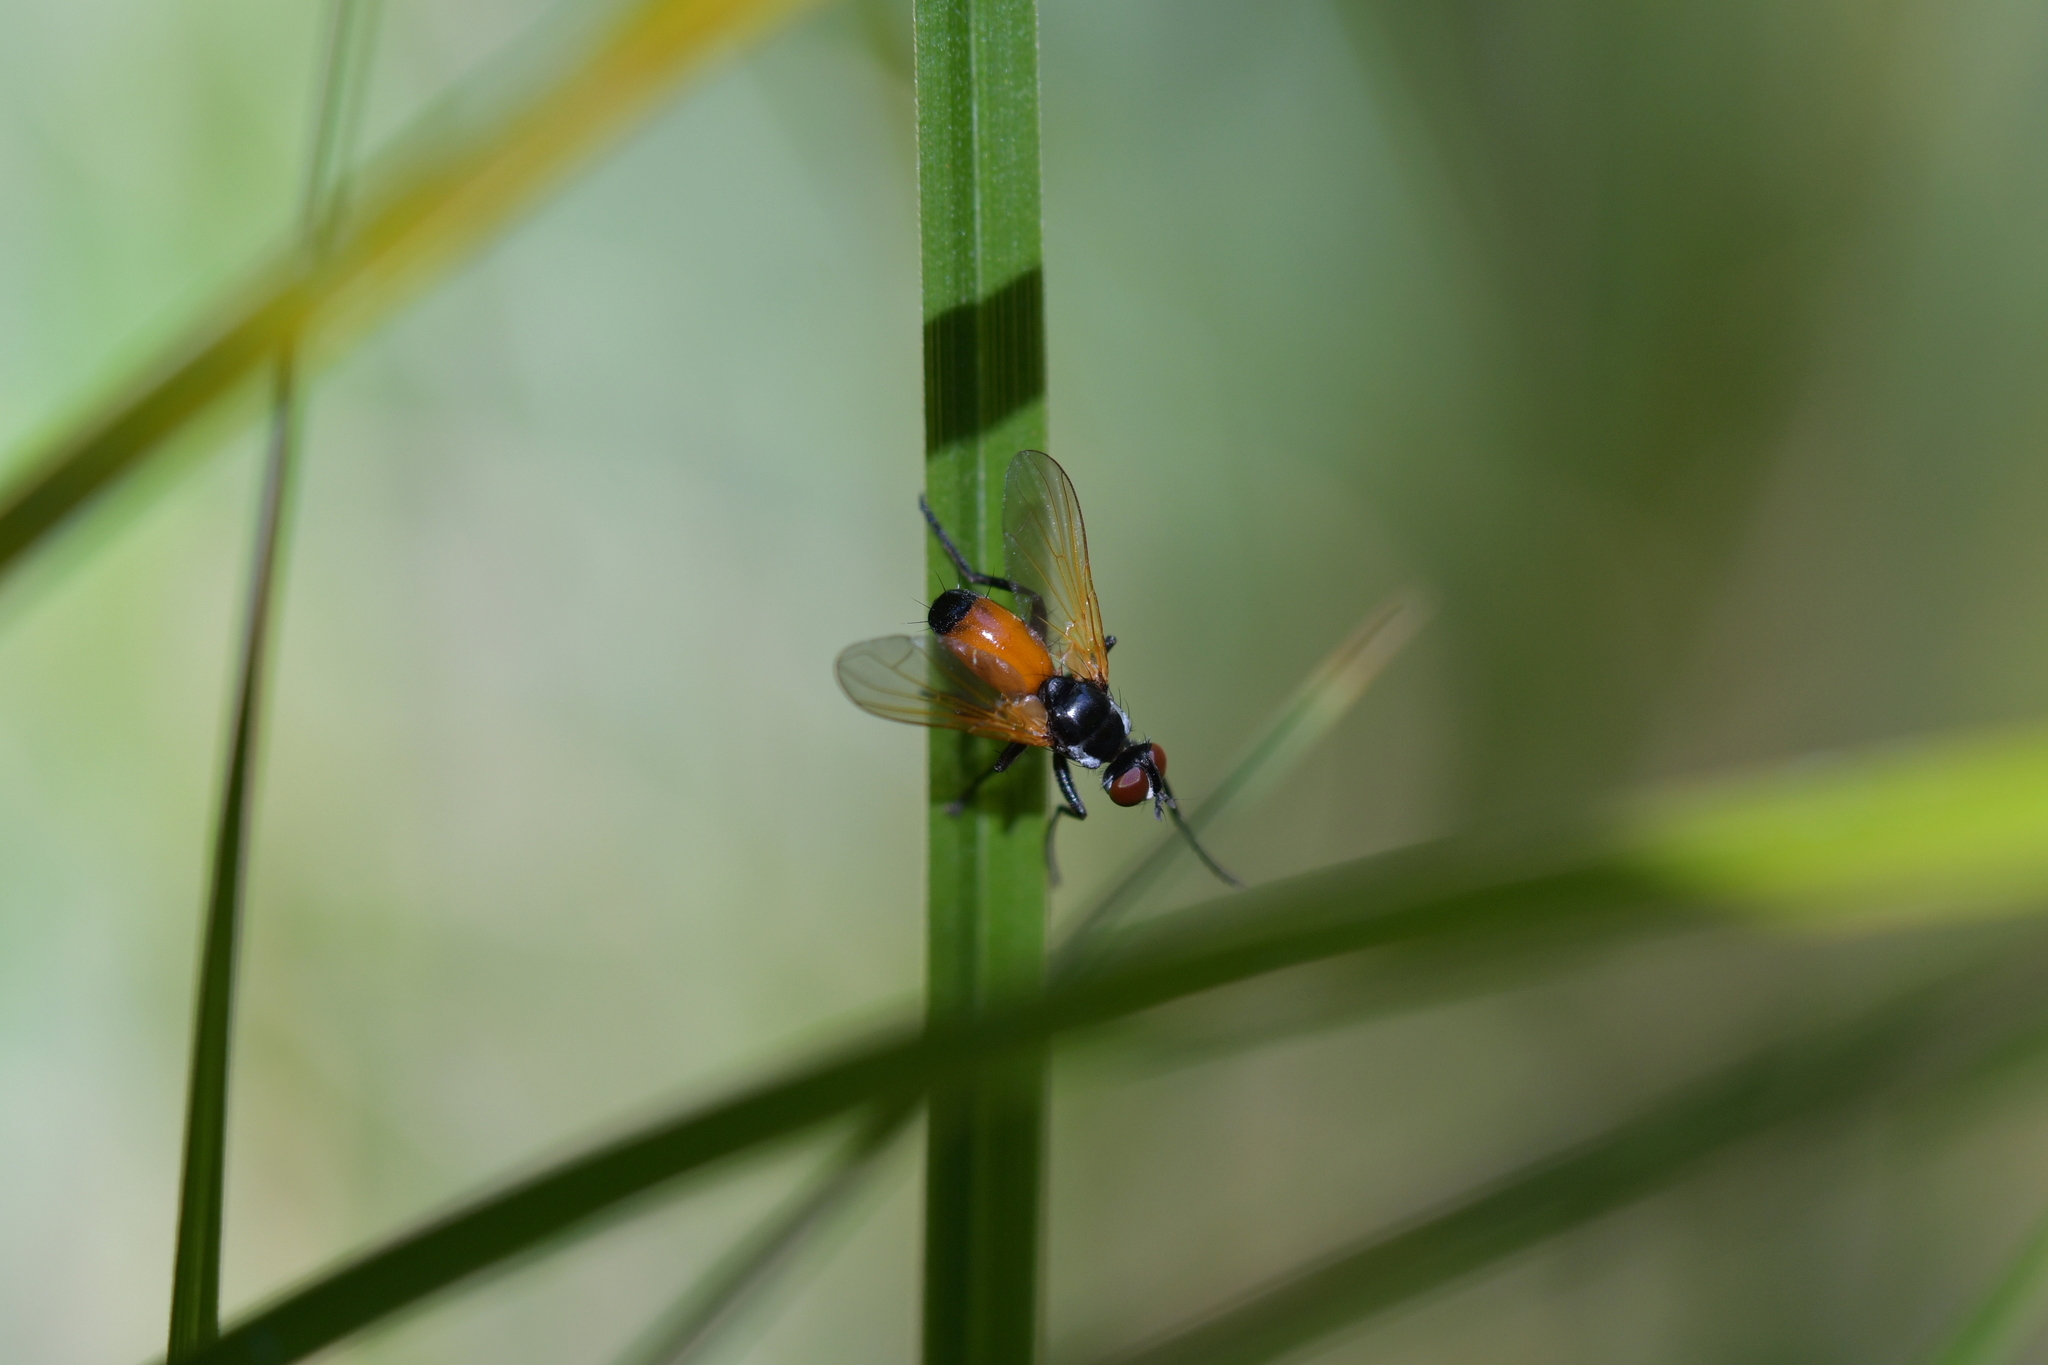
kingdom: Animalia
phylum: Arthropoda
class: Insecta
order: Diptera
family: Tachinidae
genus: Huttonobesseria
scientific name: Huttonobesseria verecunda
